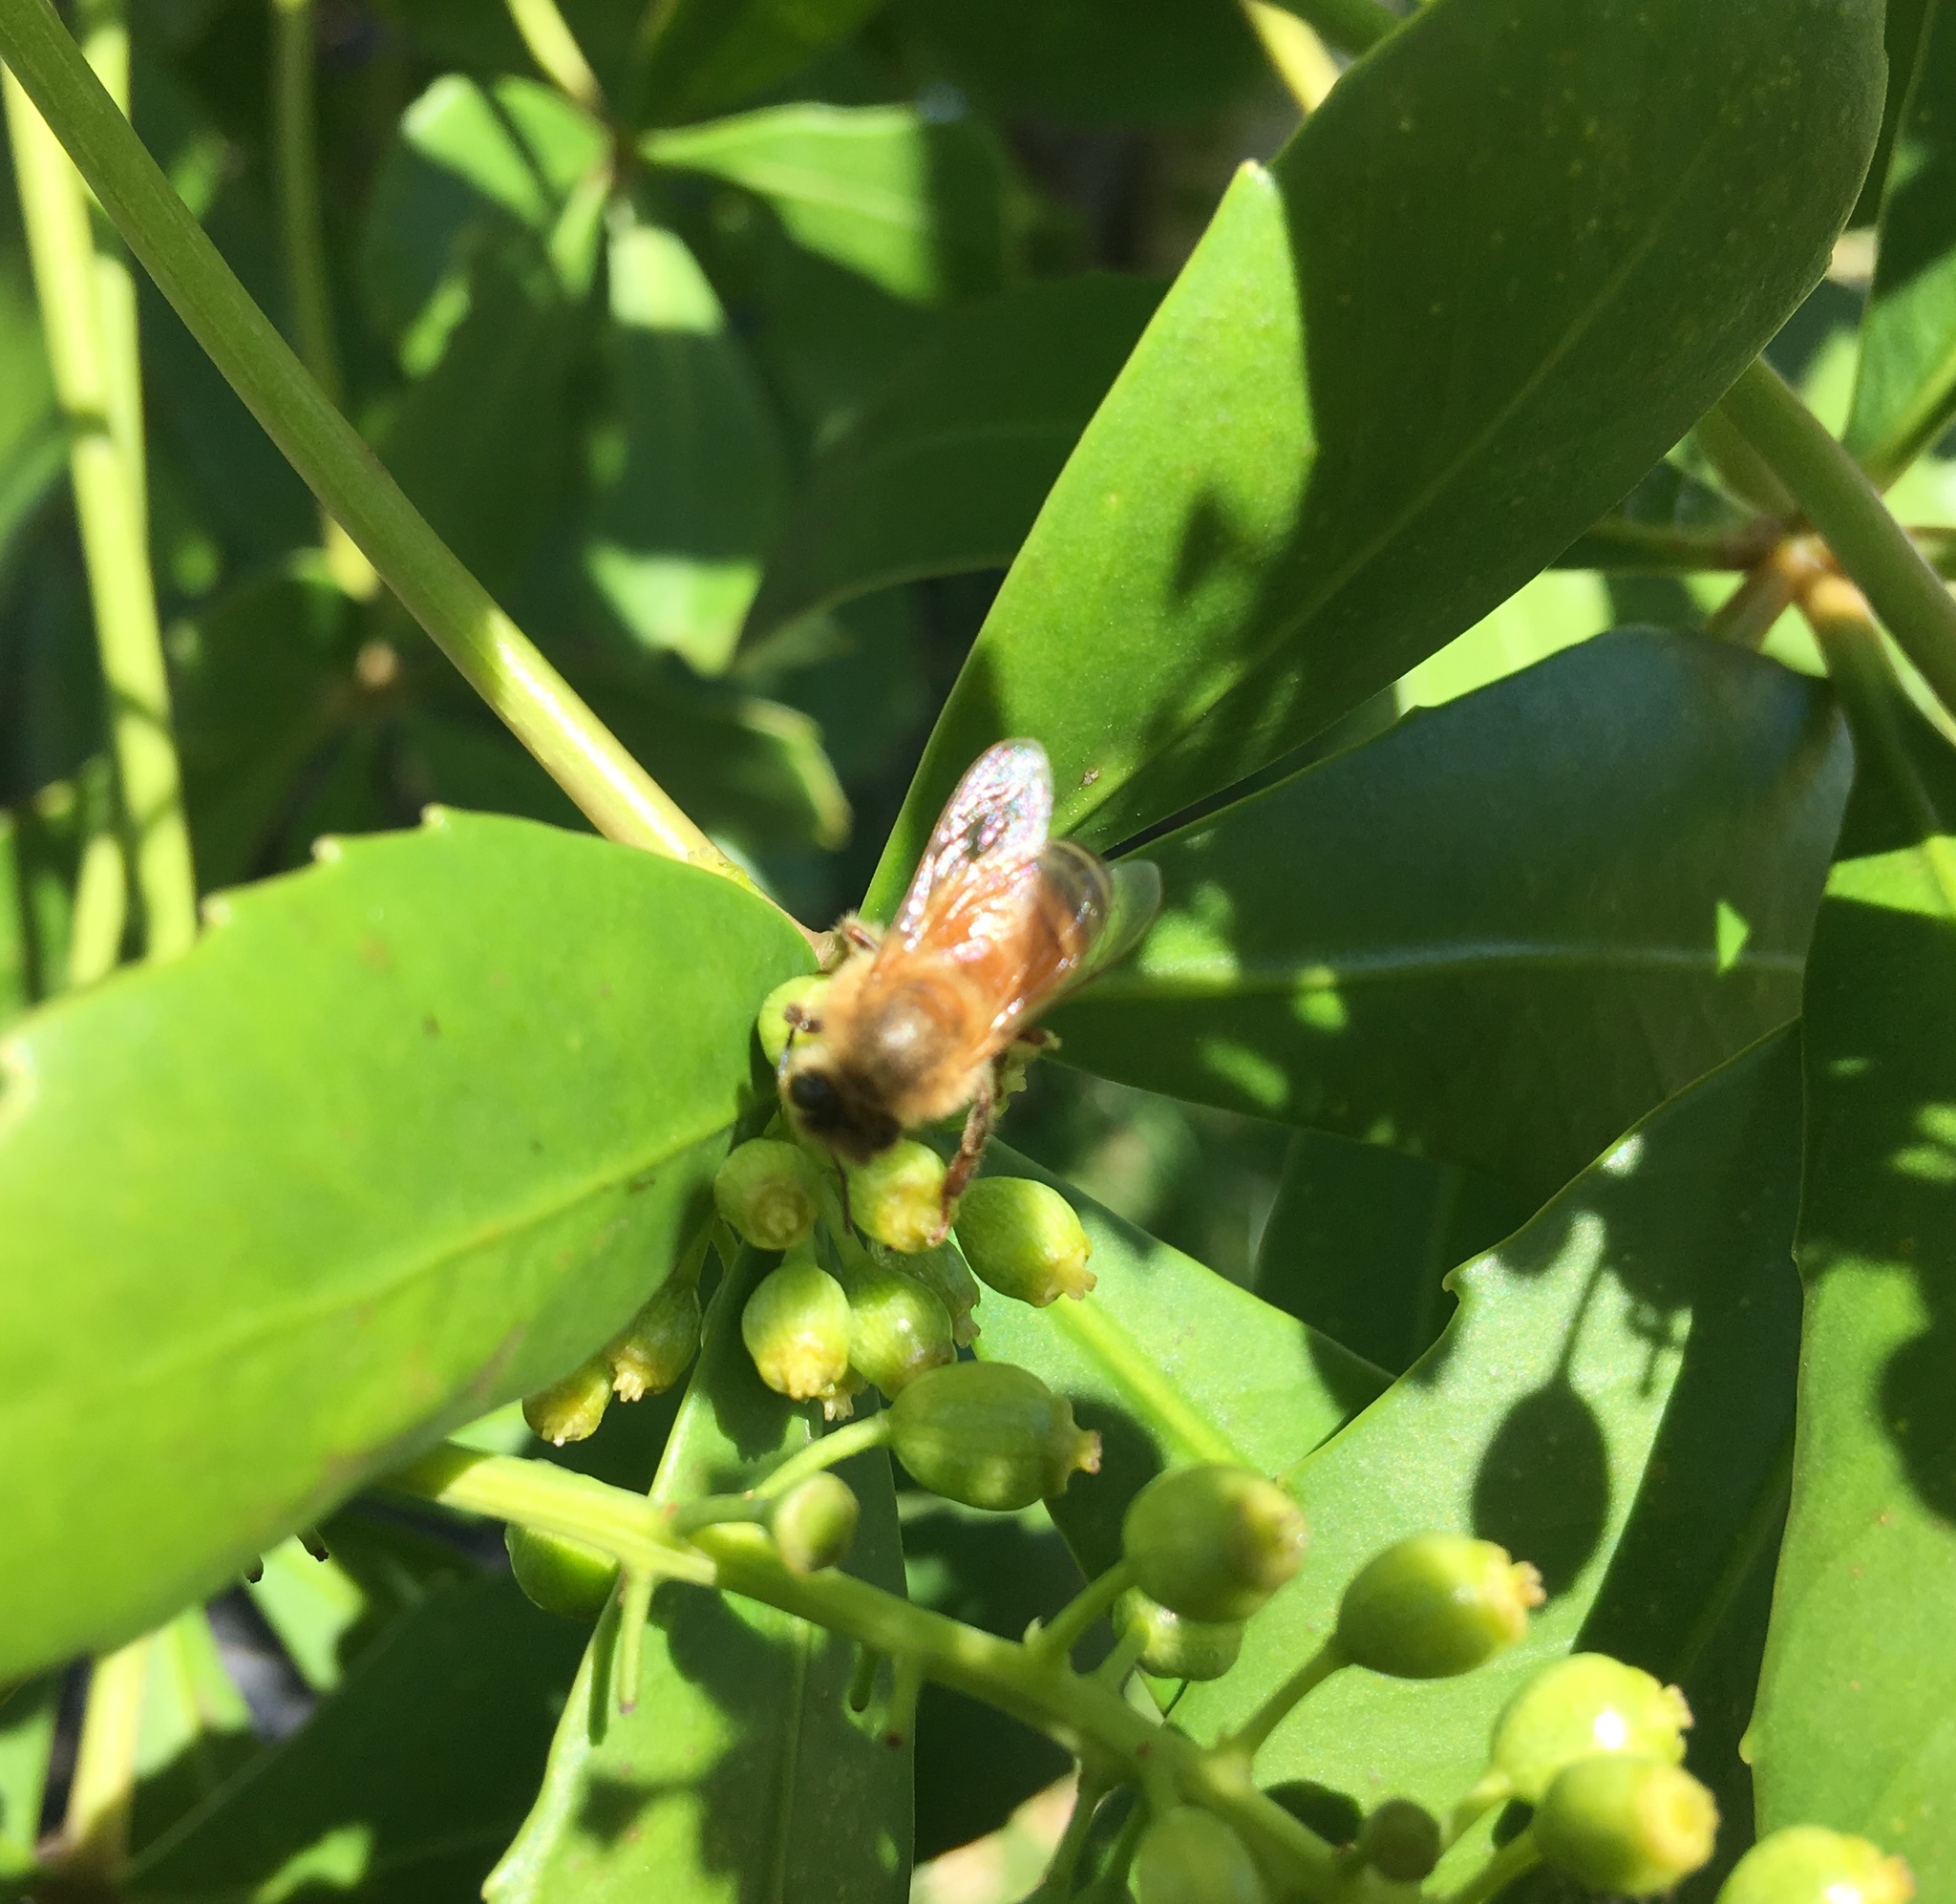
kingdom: Plantae
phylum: Tracheophyta
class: Magnoliopsida
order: Apiales
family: Araliaceae
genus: Pseudopanax
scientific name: Pseudopanax lessonii
